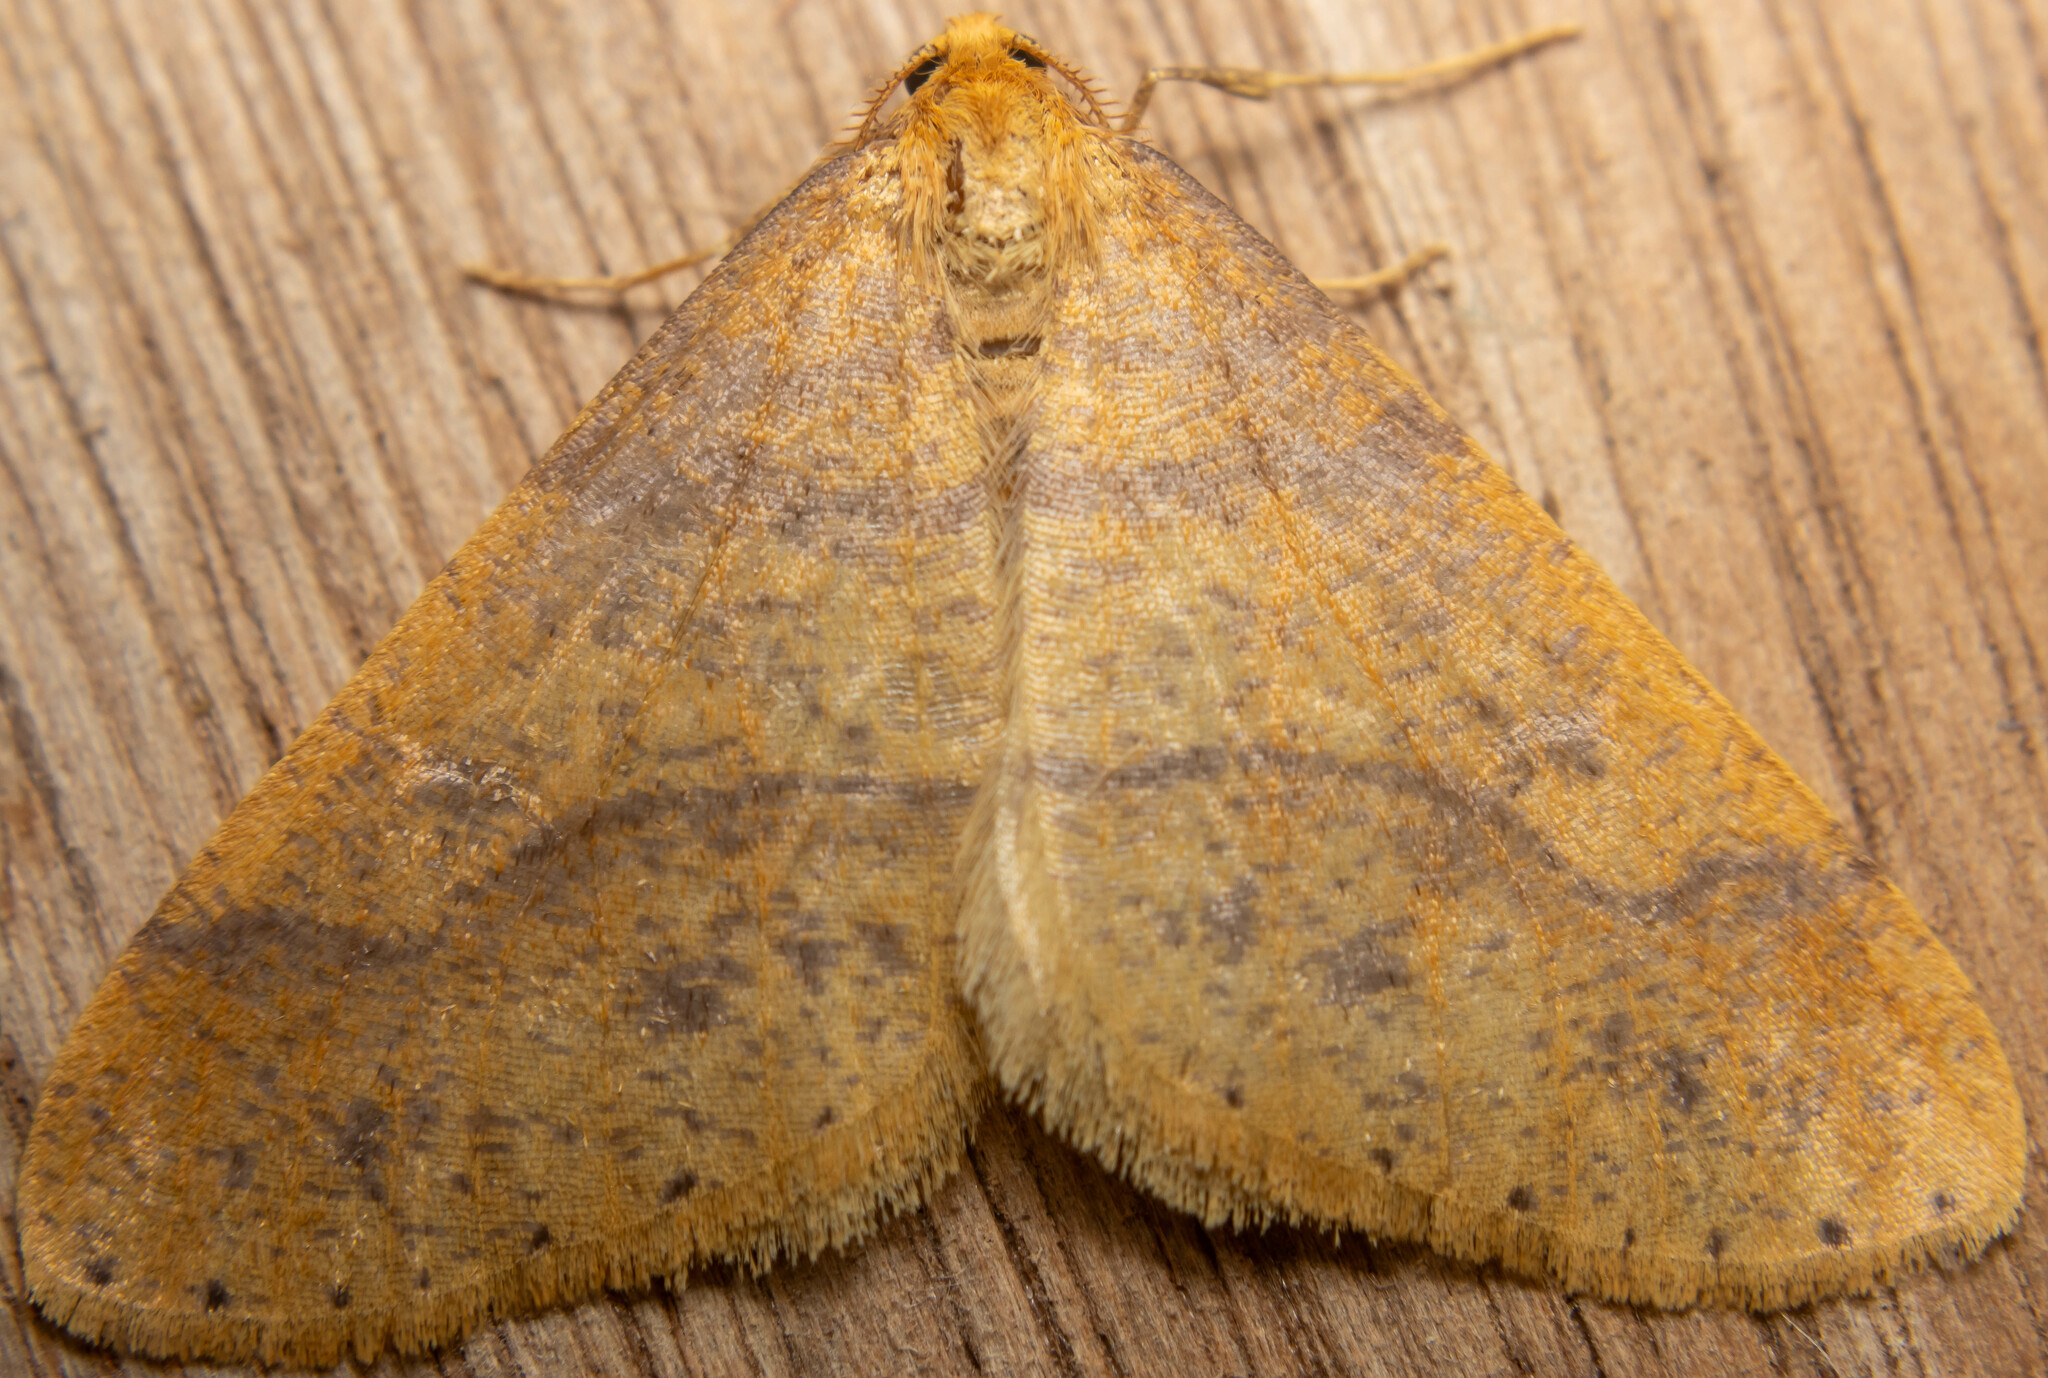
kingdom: Animalia
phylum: Arthropoda
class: Insecta
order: Lepidoptera
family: Geometridae
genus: Agriopis
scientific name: Agriopis aurantiaria
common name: Scarce umber
